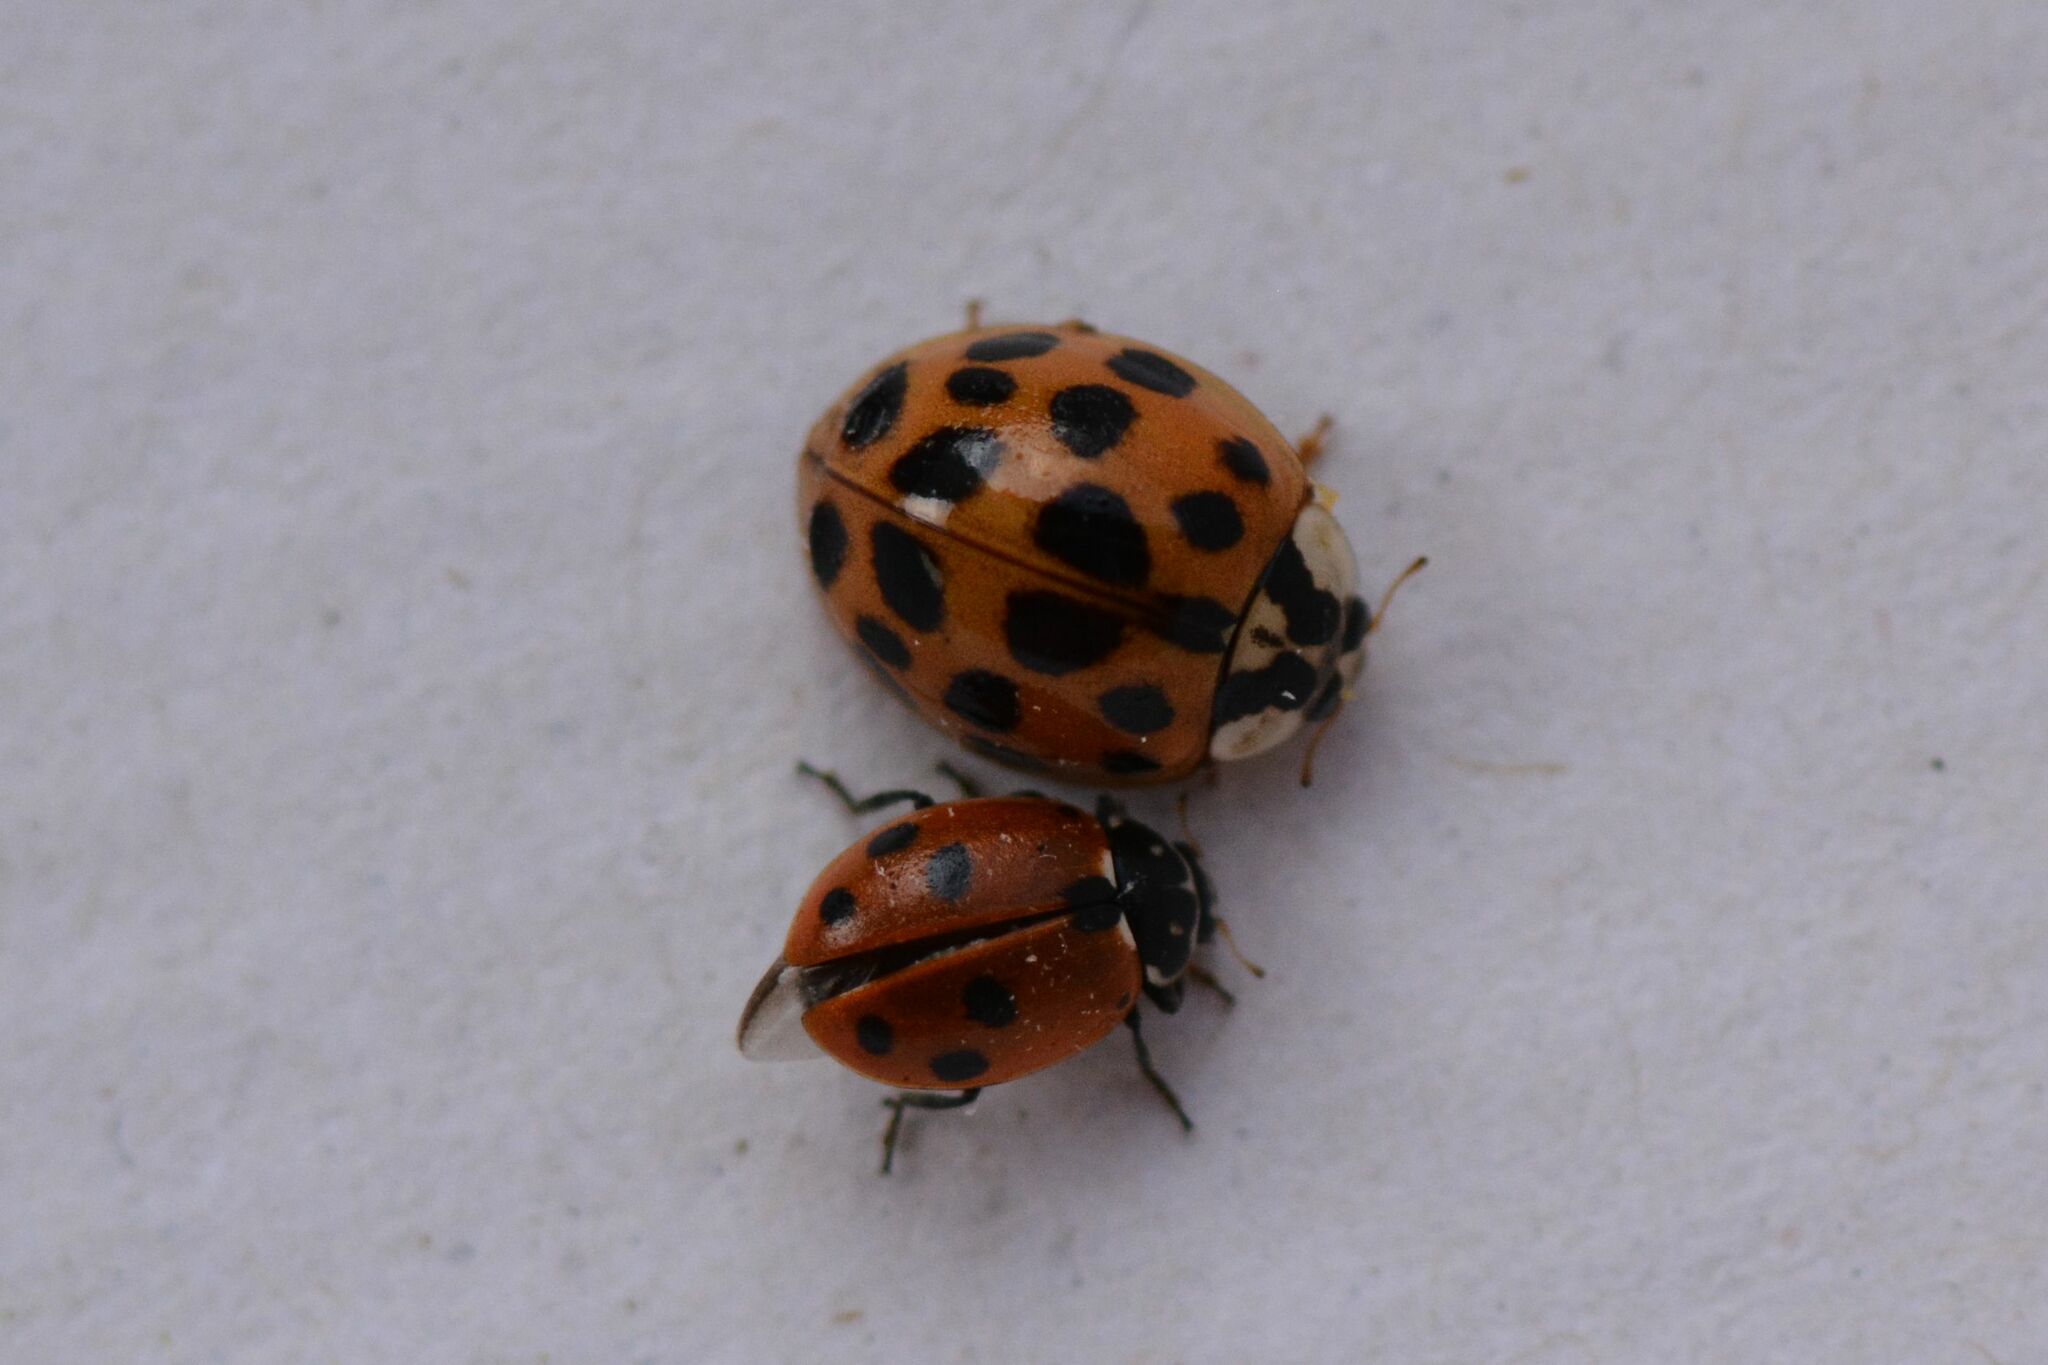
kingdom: Animalia
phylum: Arthropoda
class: Insecta
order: Coleoptera
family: Coccinellidae
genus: Hippodamia
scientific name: Hippodamia variegata
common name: Ladybird beetle
